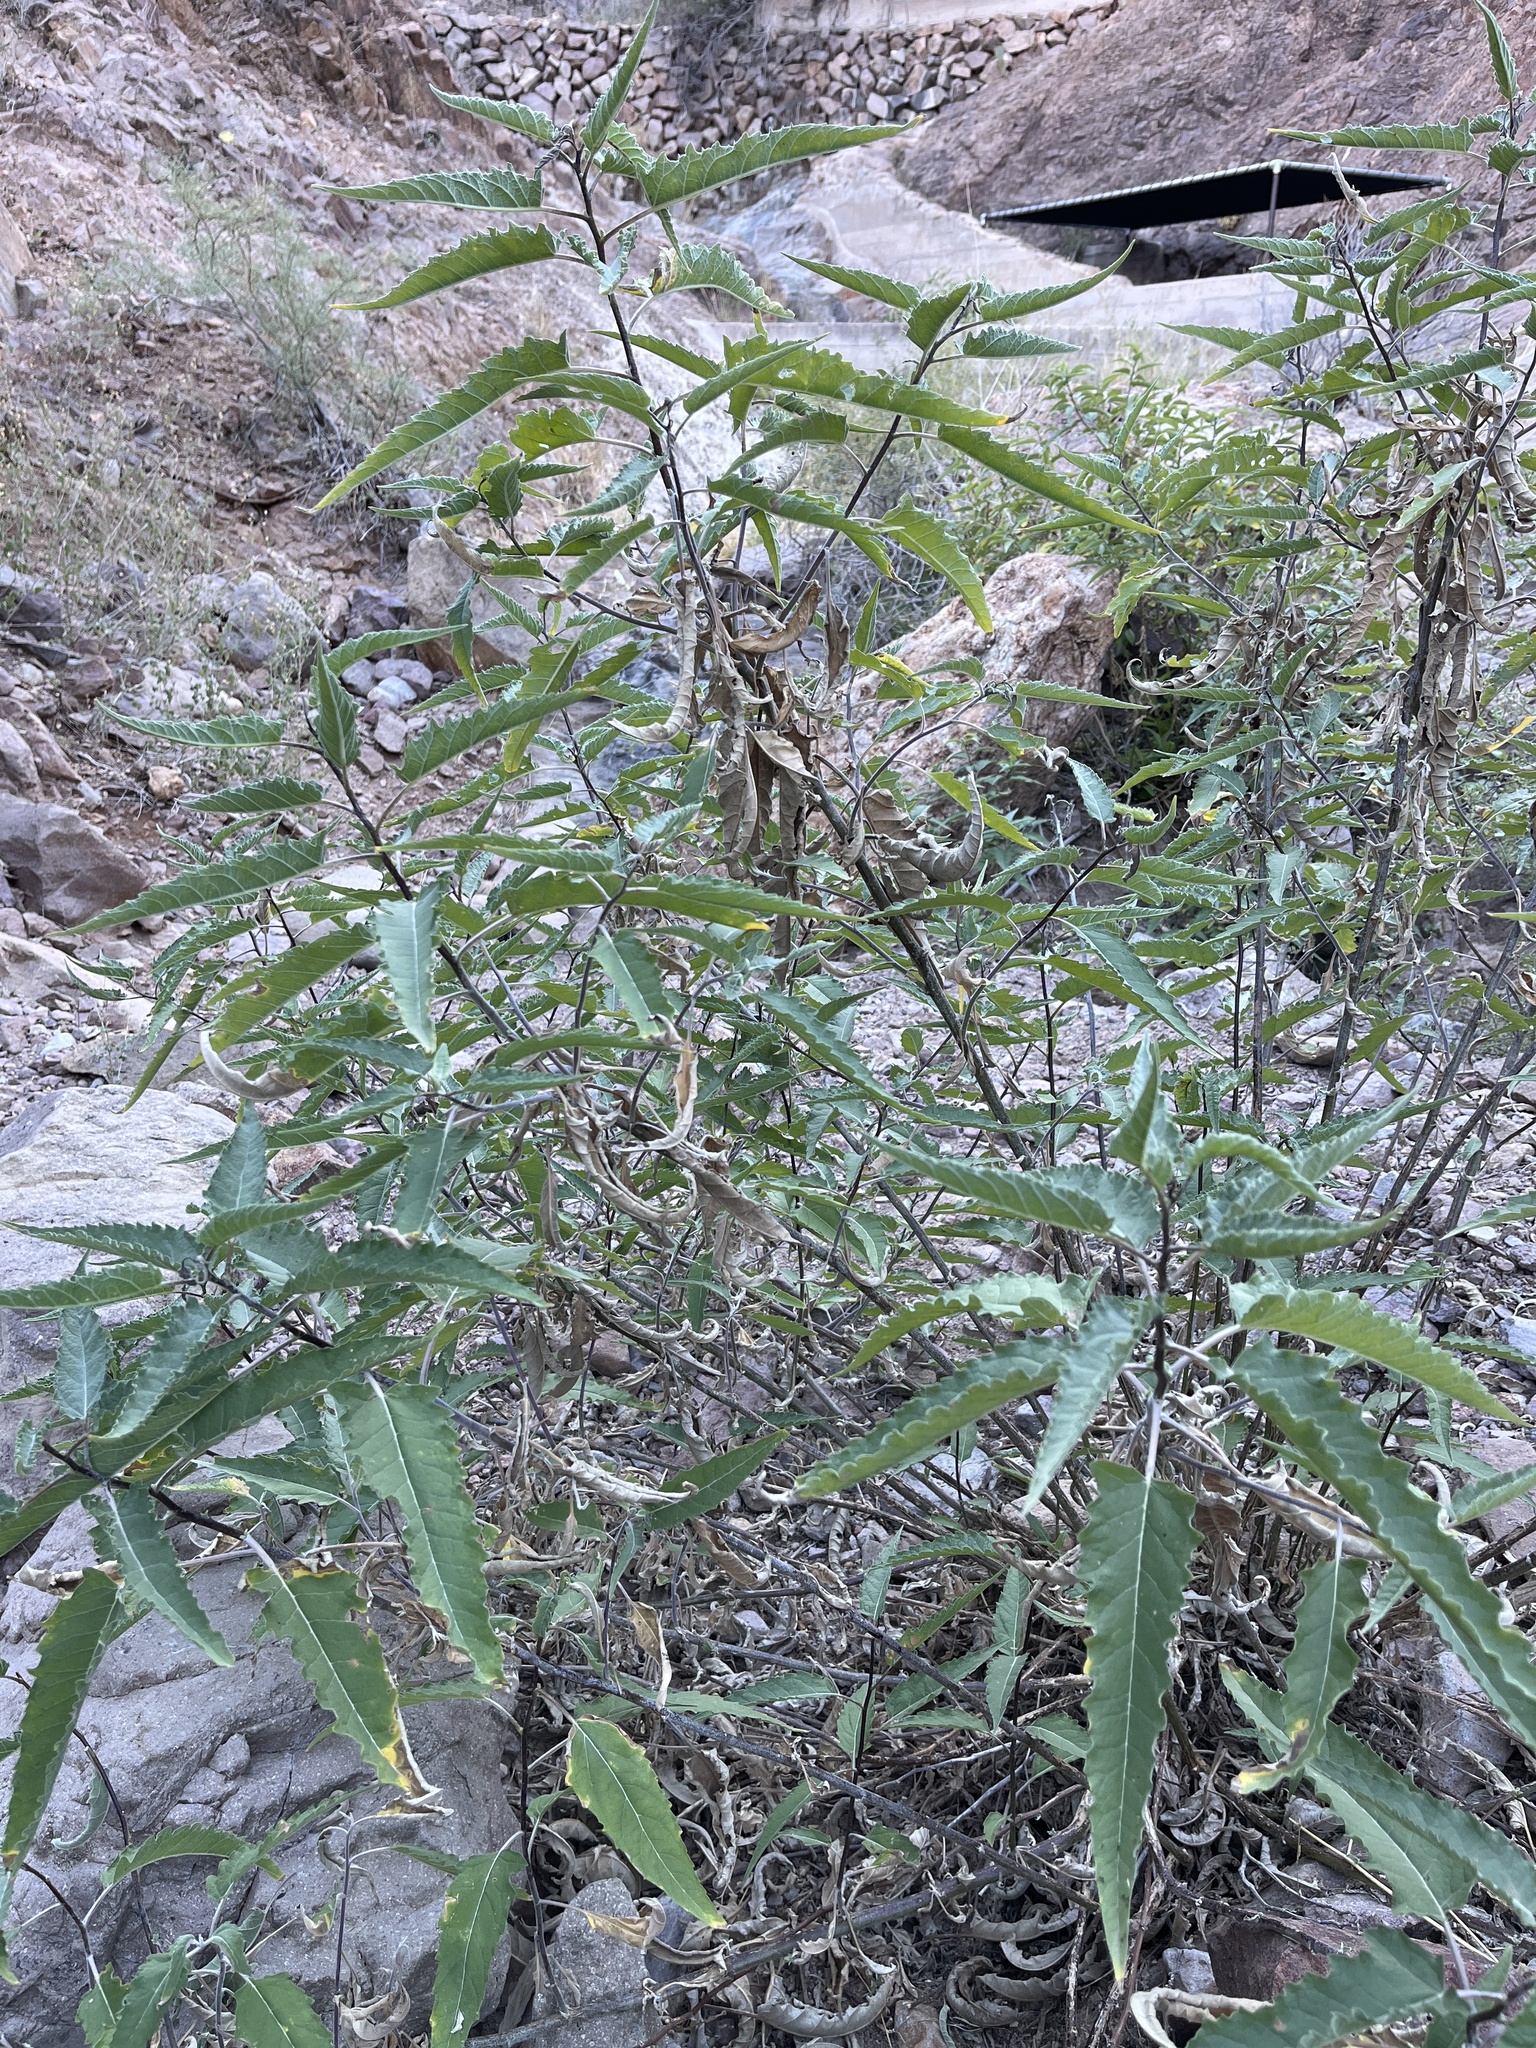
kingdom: Plantae
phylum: Tracheophyta
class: Magnoliopsida
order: Asterales
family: Asteraceae
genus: Ambrosia
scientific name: Ambrosia ambrosioides
